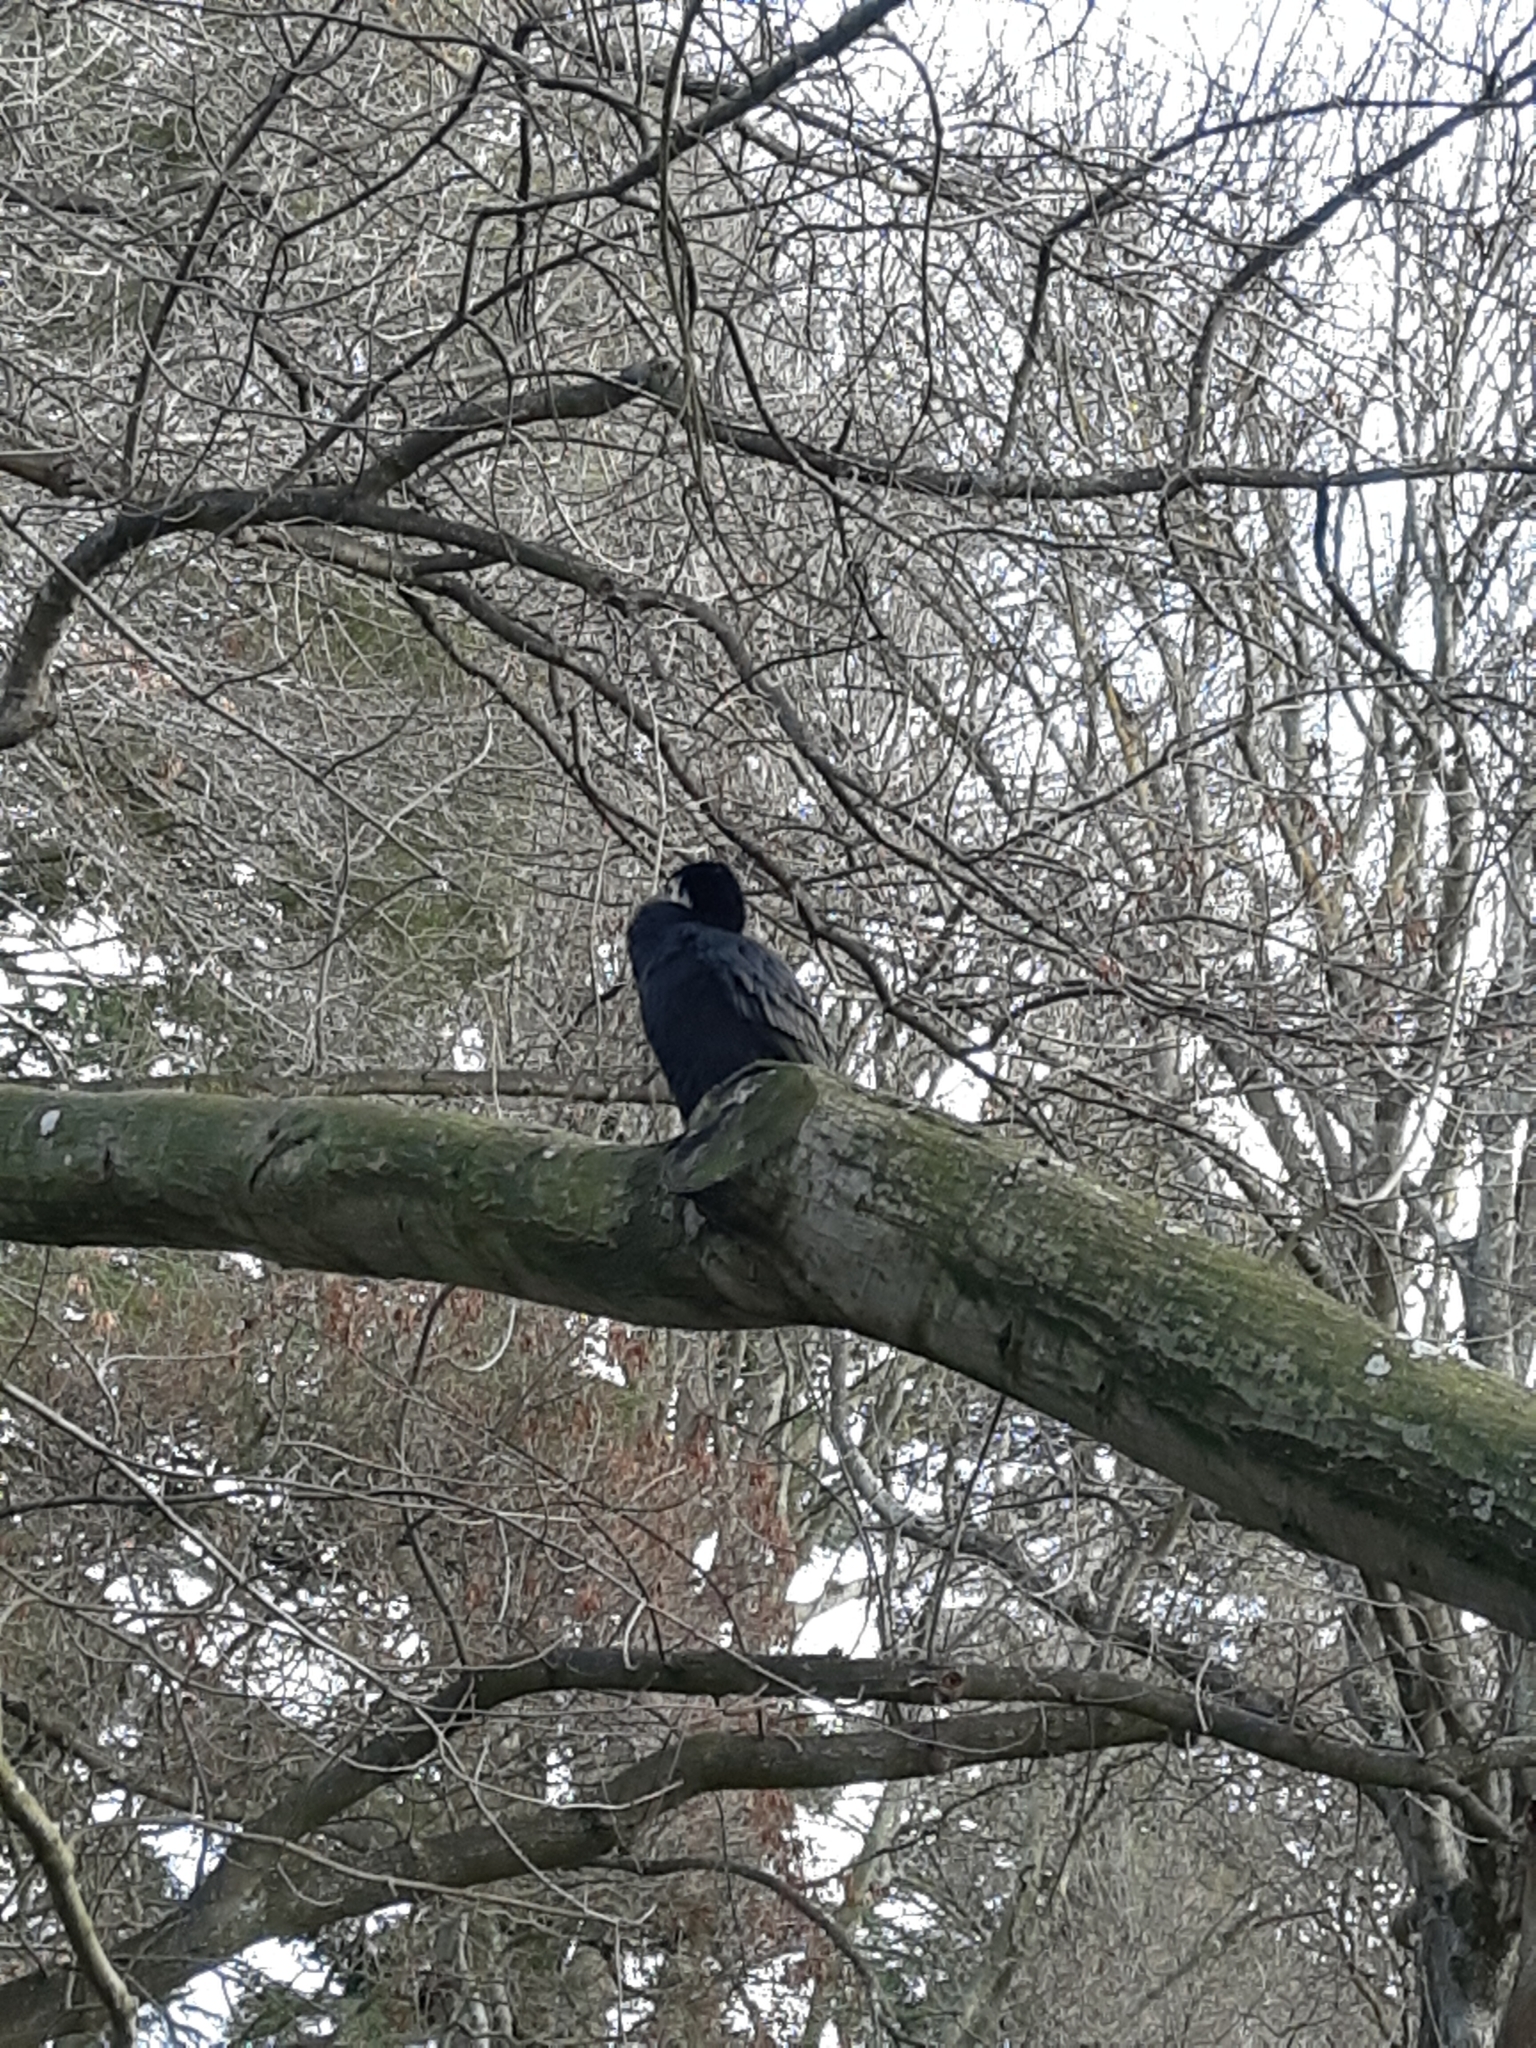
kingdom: Animalia
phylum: Chordata
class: Aves
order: Suliformes
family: Phalacrocoracidae
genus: Microcarbo
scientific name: Microcarbo melanoleucos
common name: Little pied cormorant
